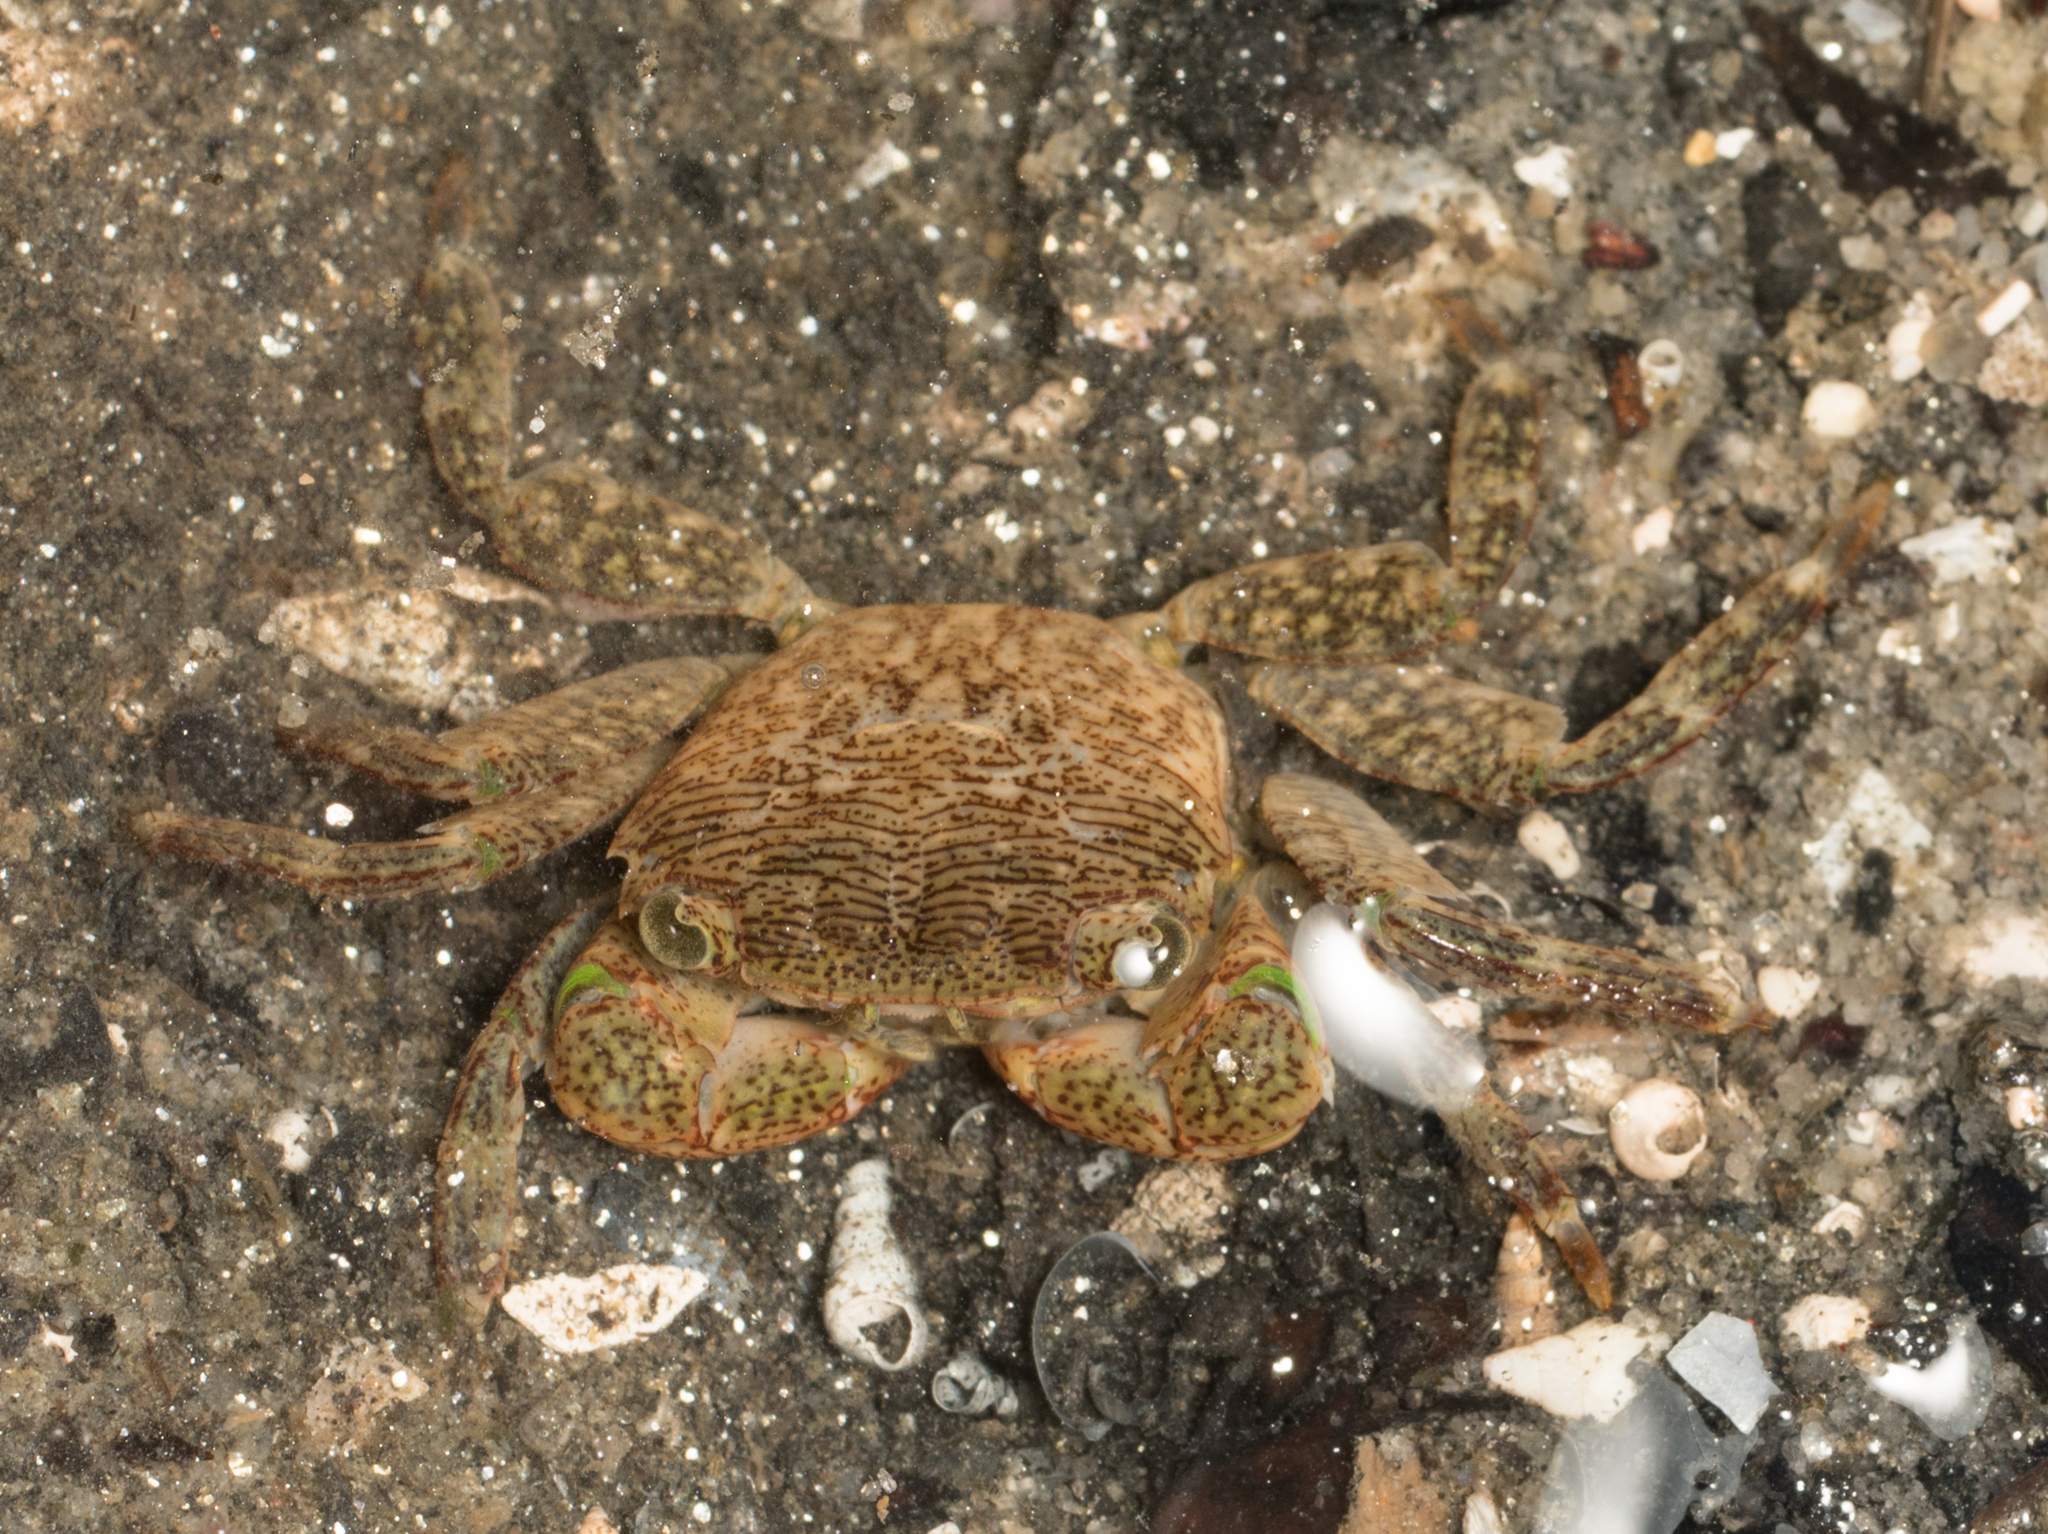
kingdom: Animalia
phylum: Arthropoda
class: Malacostraca
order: Decapoda
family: Grapsidae
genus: Pachygrapsus
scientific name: Pachygrapsus crassipes
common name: Striped shore crab
